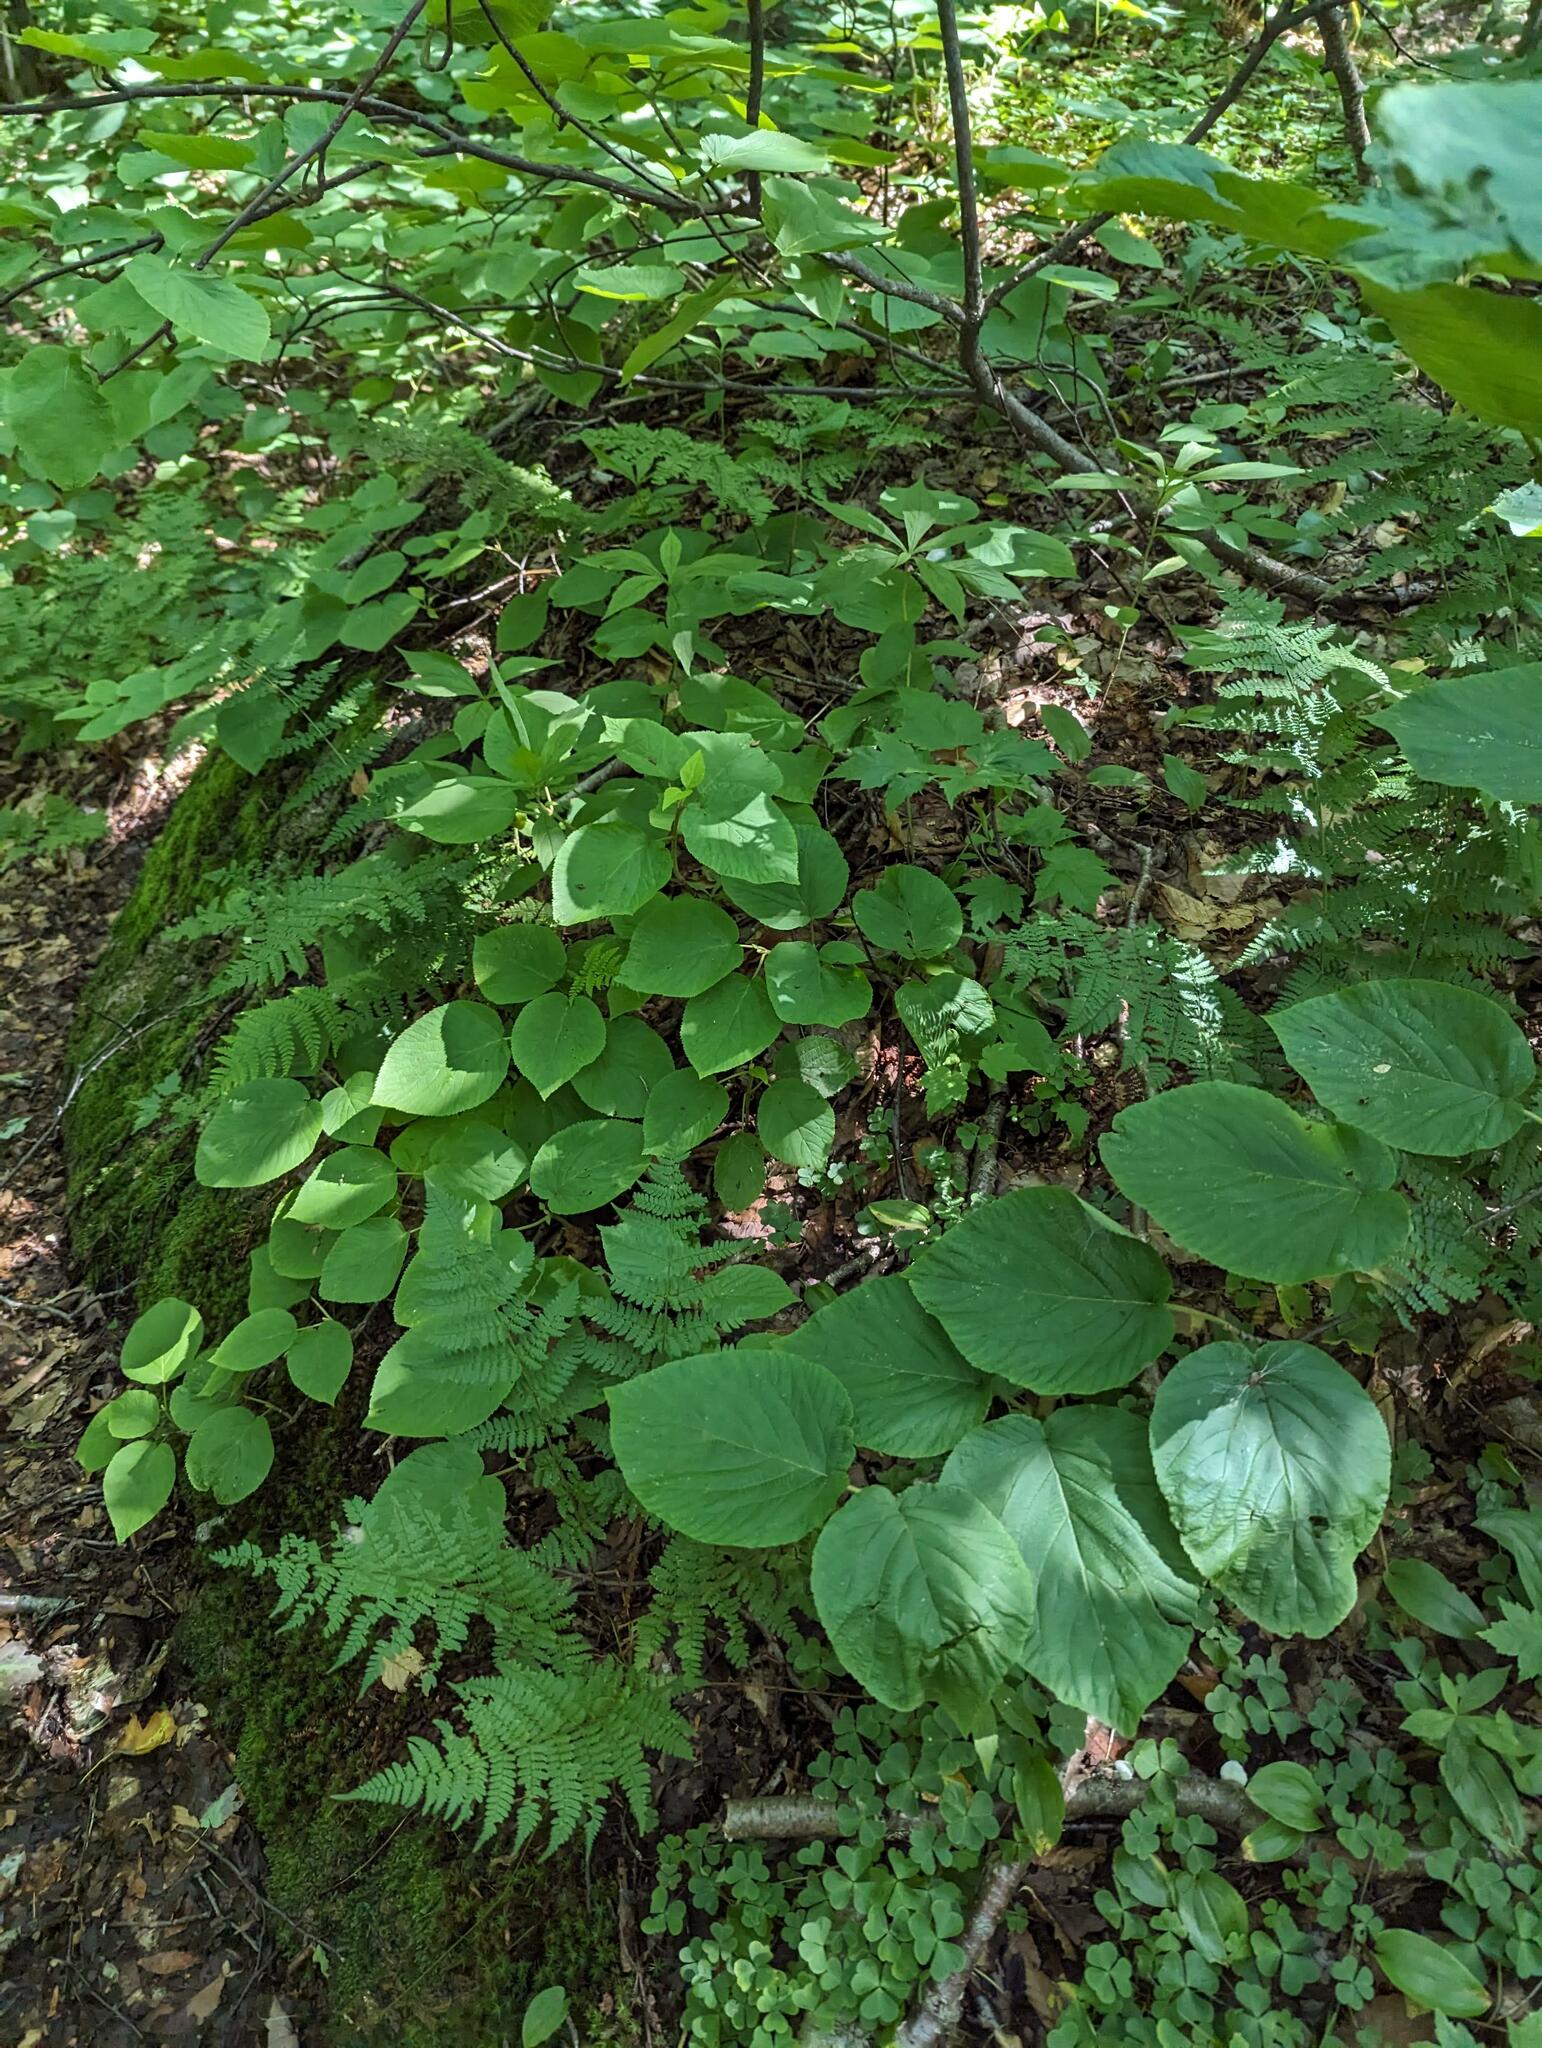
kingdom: Plantae
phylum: Tracheophyta
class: Magnoliopsida
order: Dipsacales
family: Viburnaceae
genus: Viburnum
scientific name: Viburnum lantanoides
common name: Hobblebush
